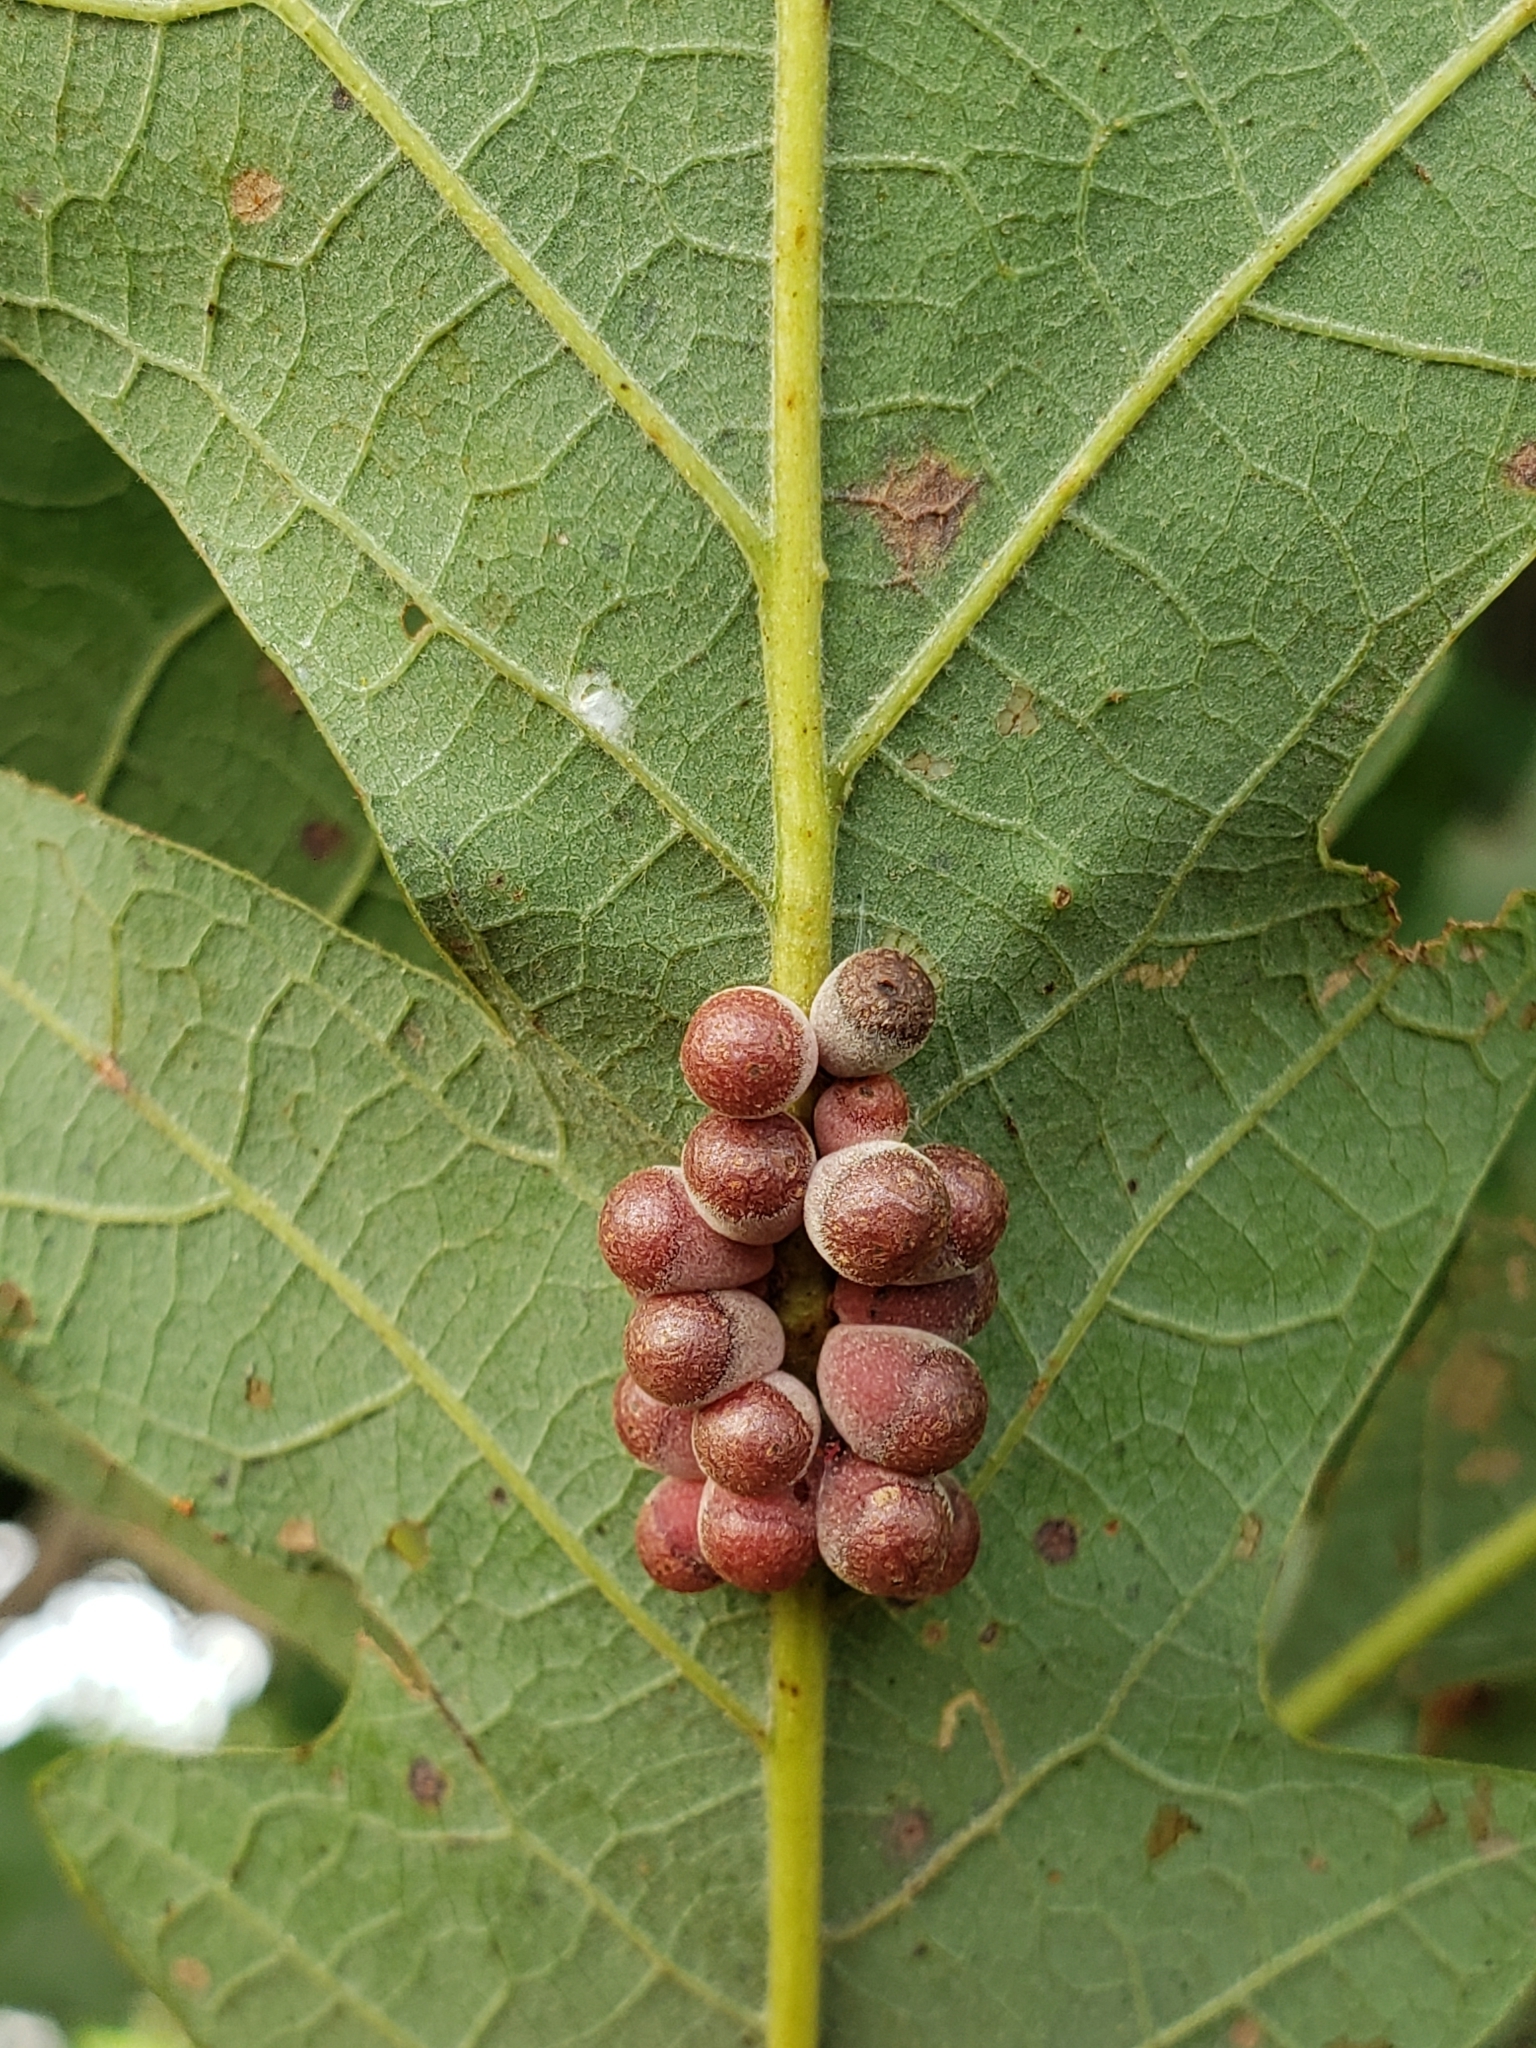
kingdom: Animalia
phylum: Arthropoda
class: Insecta
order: Hymenoptera
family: Cynipidae
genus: Andricus
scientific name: Andricus
